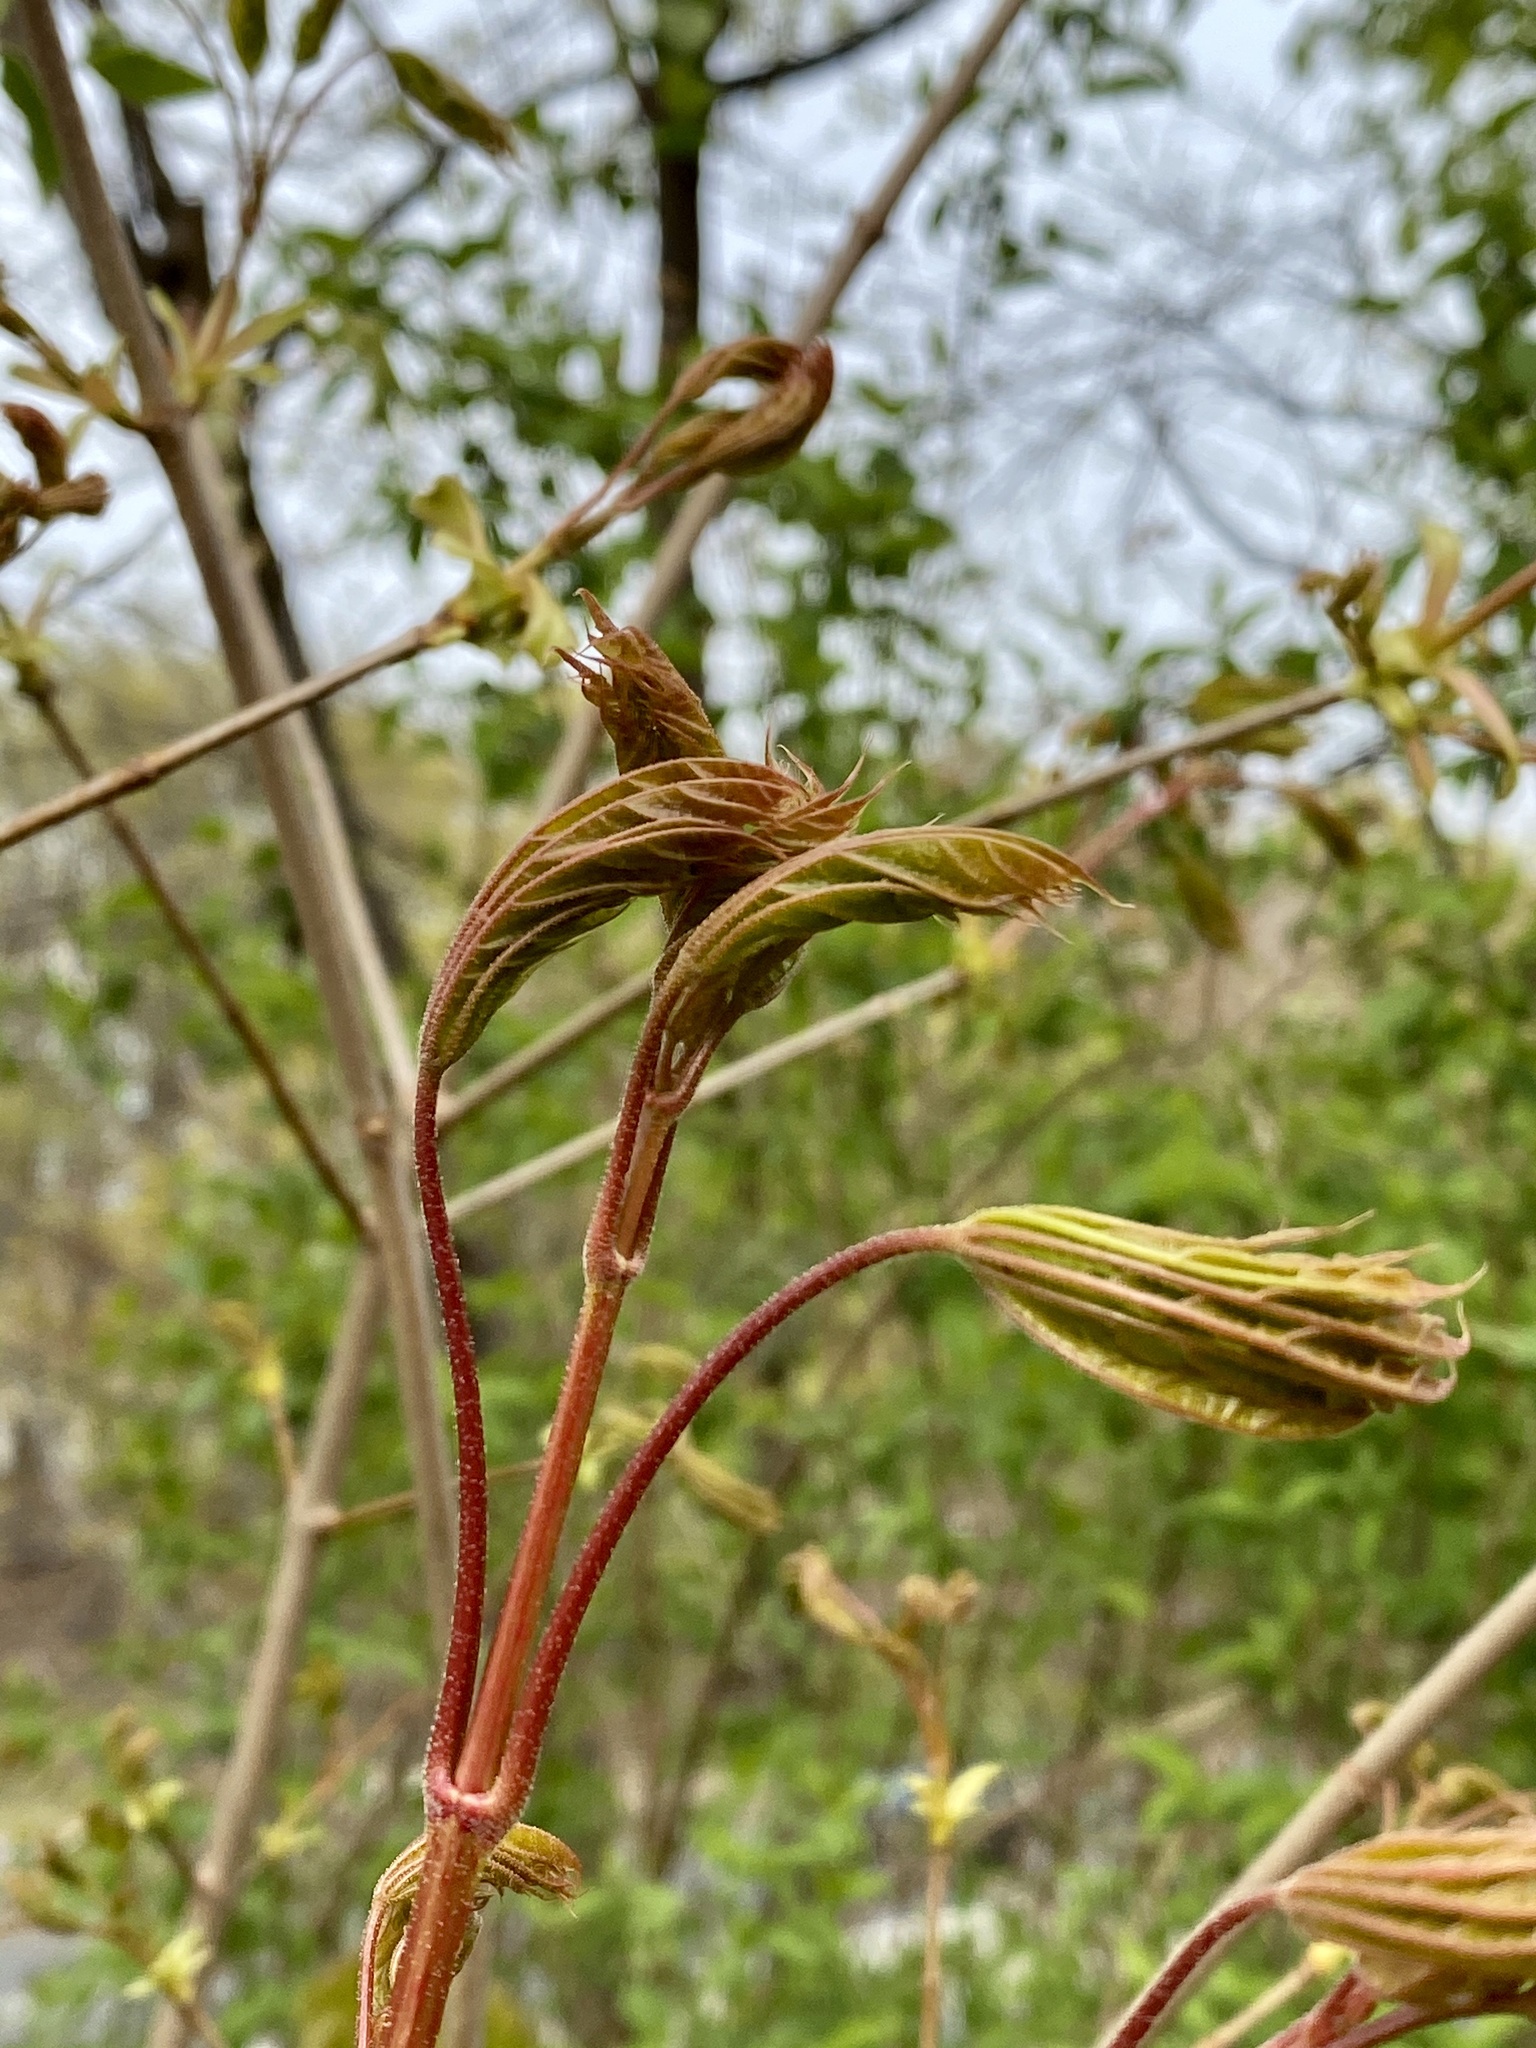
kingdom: Plantae
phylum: Tracheophyta
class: Magnoliopsida
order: Sapindales
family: Sapindaceae
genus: Acer
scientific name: Acer platanoides
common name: Norway maple
